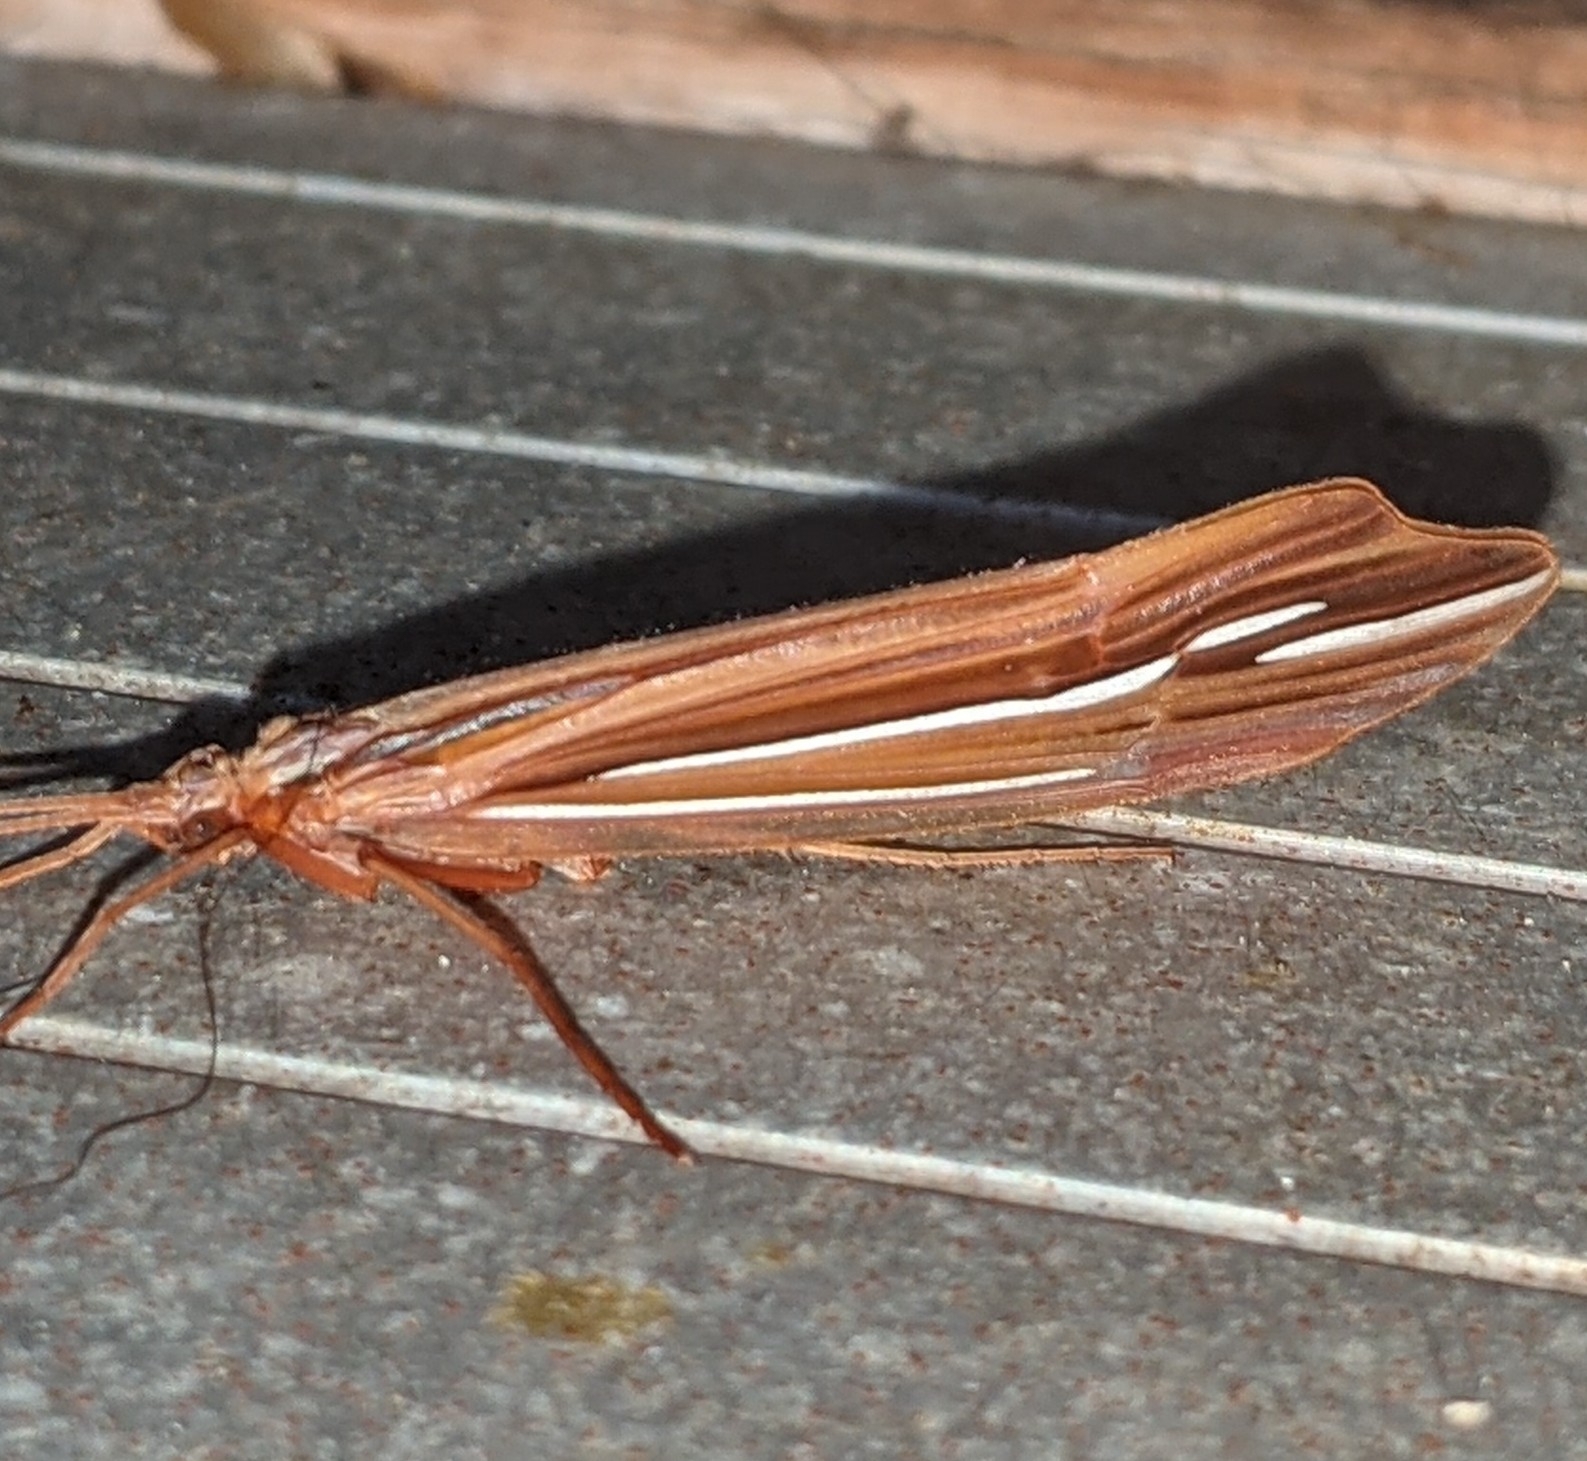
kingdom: Animalia
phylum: Arthropoda
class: Insecta
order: Trichoptera
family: Limnephilidae
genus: Psychoglypha
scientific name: Psychoglypha bella
